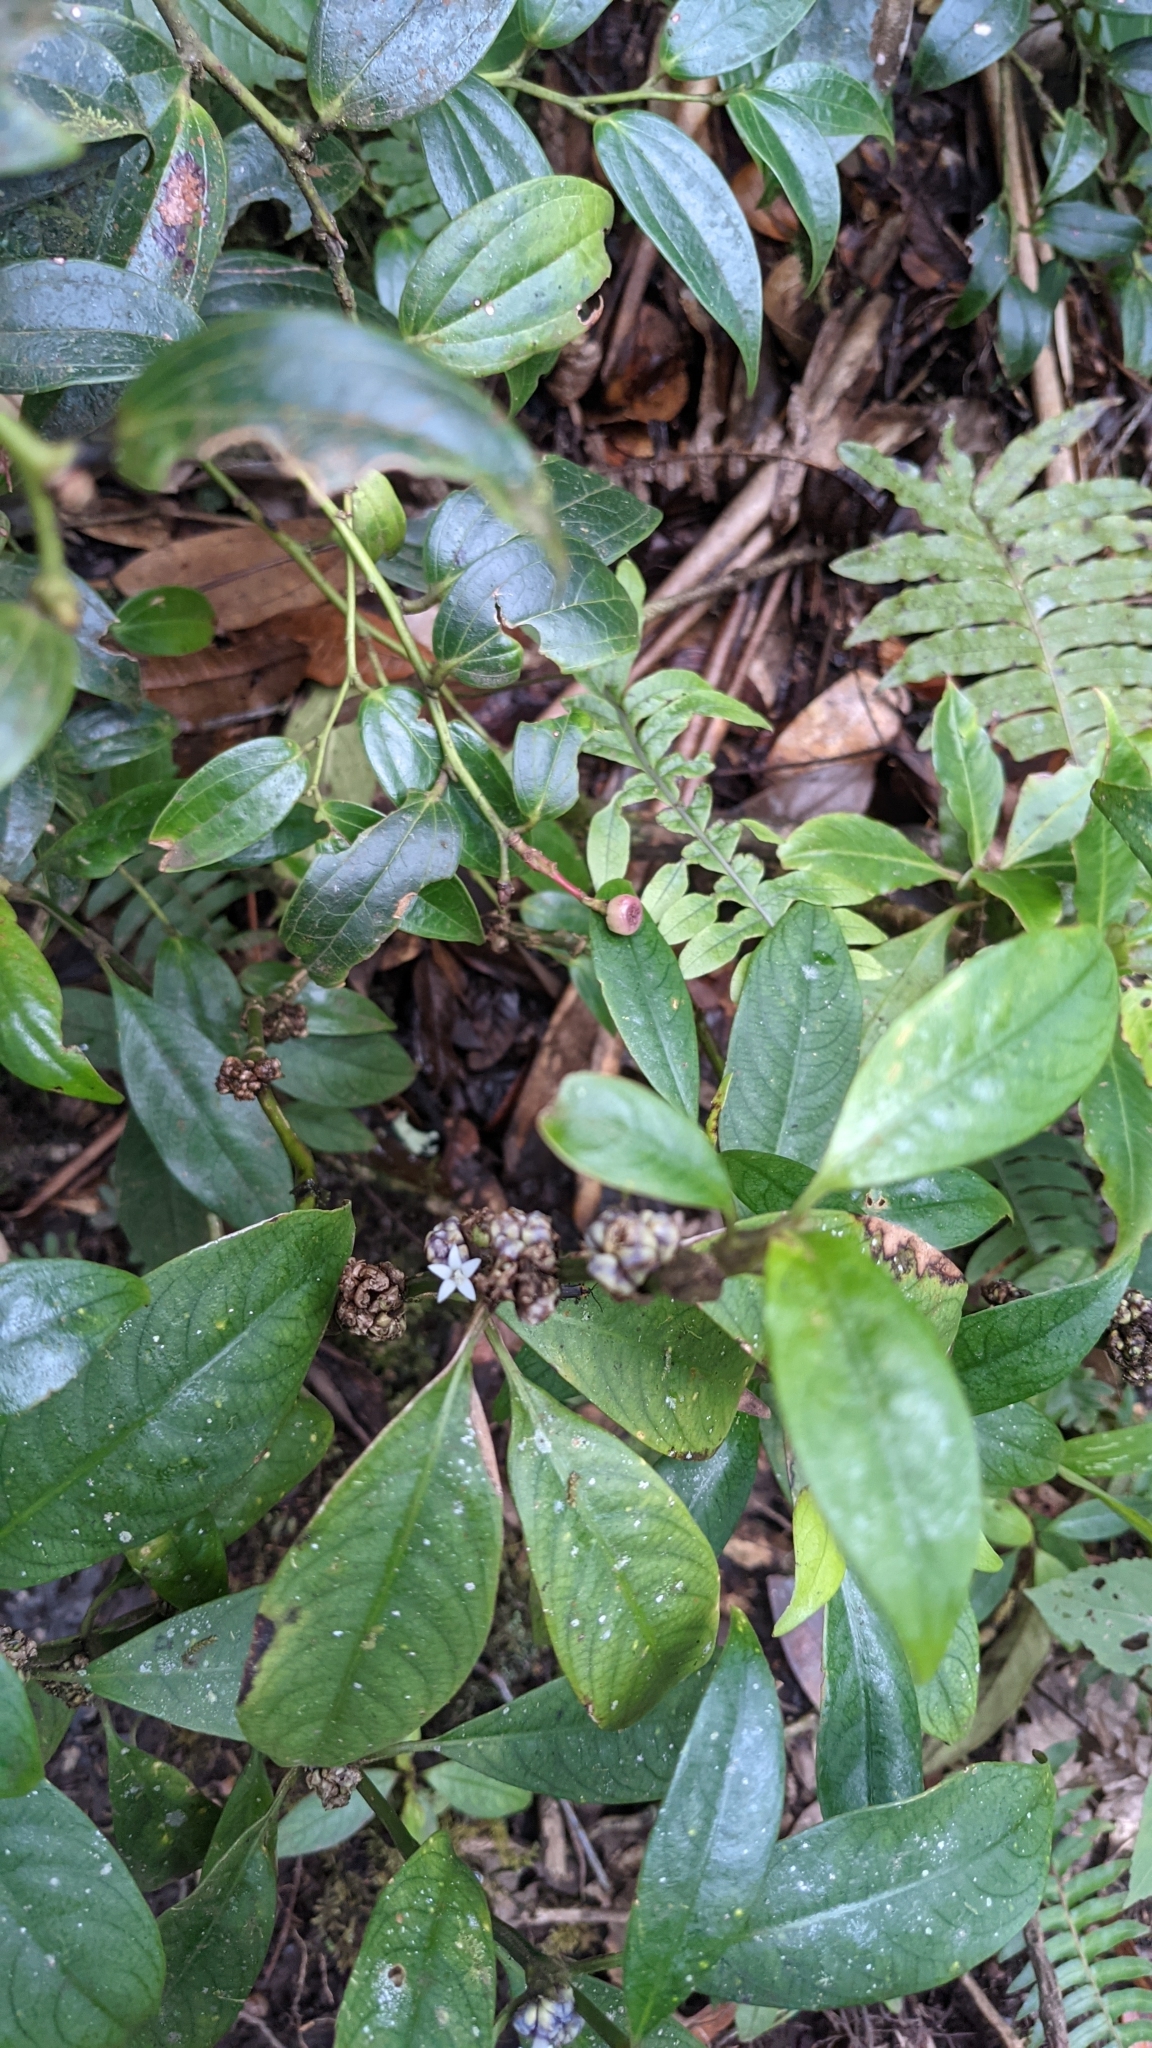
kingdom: Plantae
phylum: Tracheophyta
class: Magnoliopsida
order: Gentianales
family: Rubiaceae
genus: Palicourea
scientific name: Palicourea axillaris
